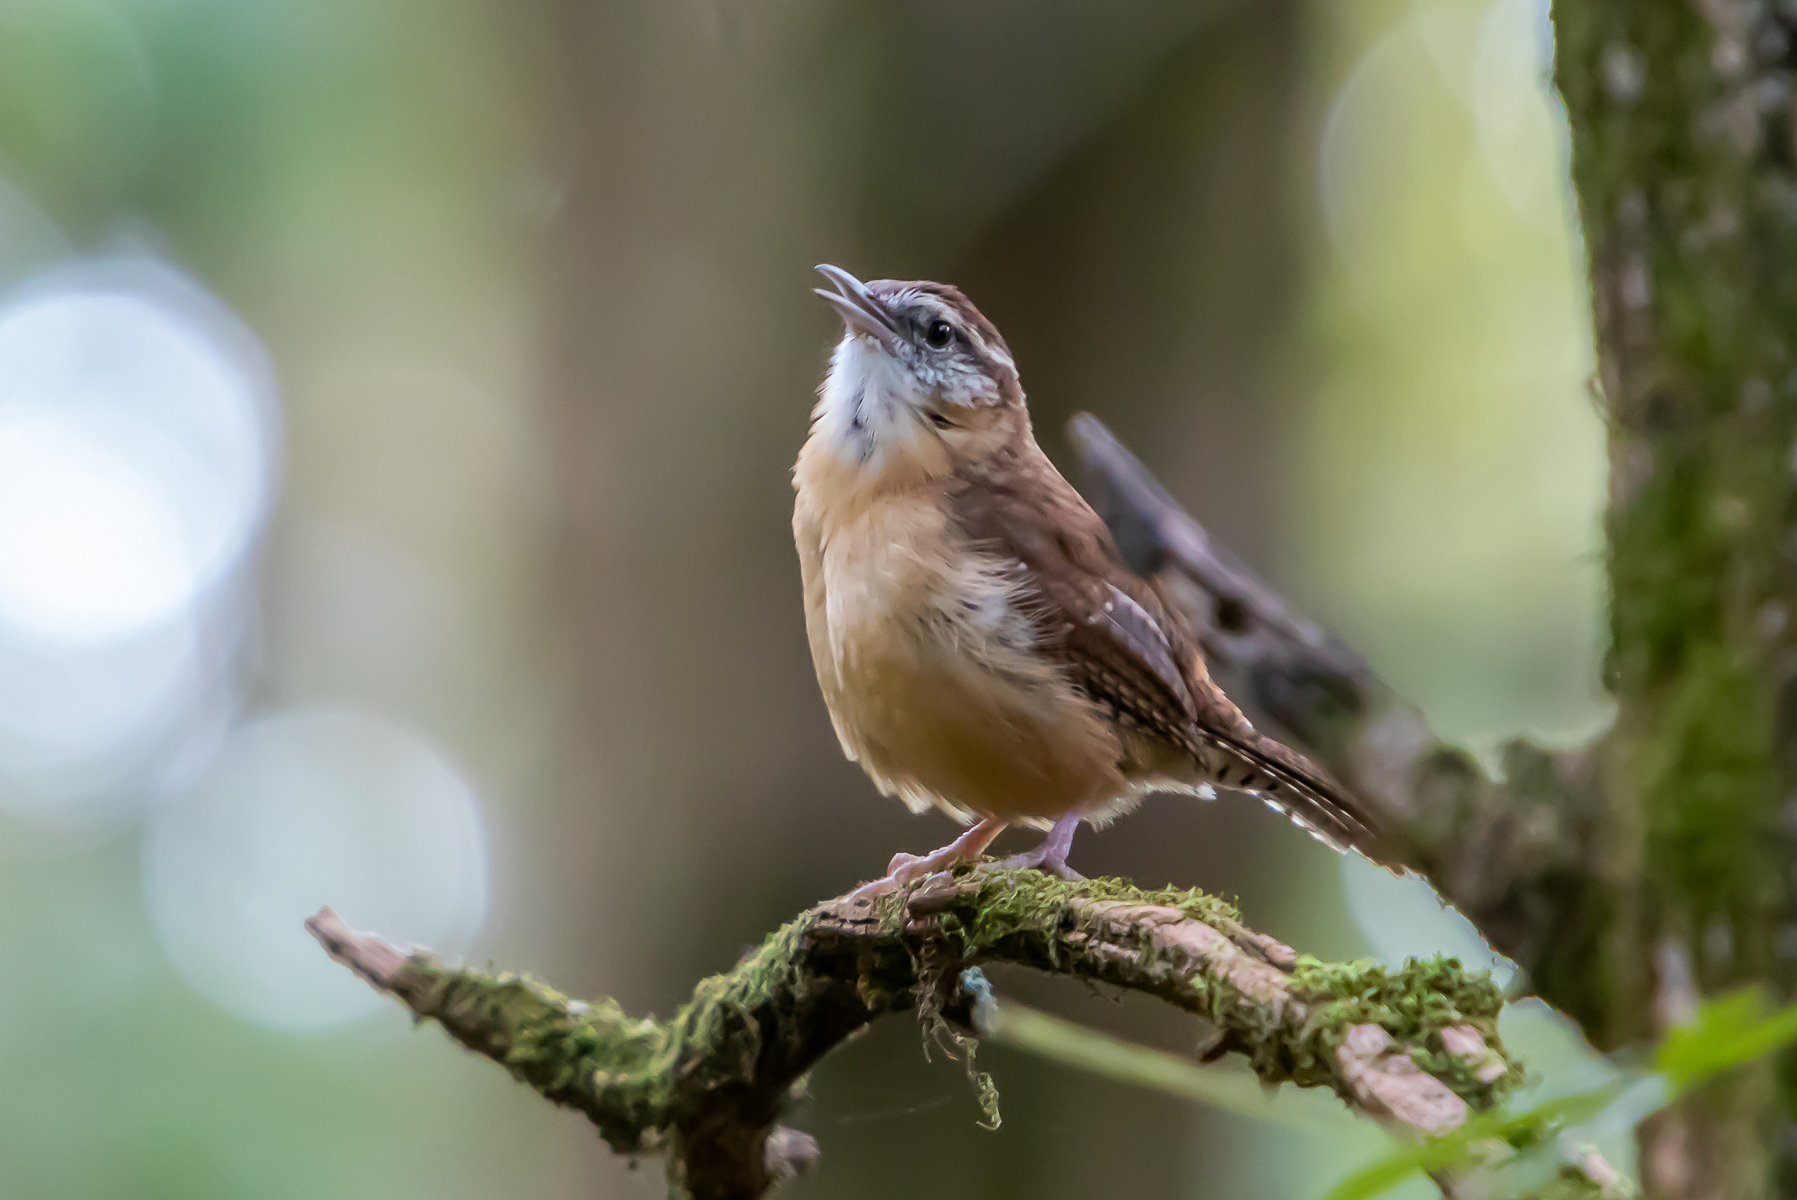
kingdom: Animalia
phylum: Chordata
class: Aves
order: Passeriformes
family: Troglodytidae
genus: Thryothorus
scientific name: Thryothorus ludovicianus
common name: Carolina wren
